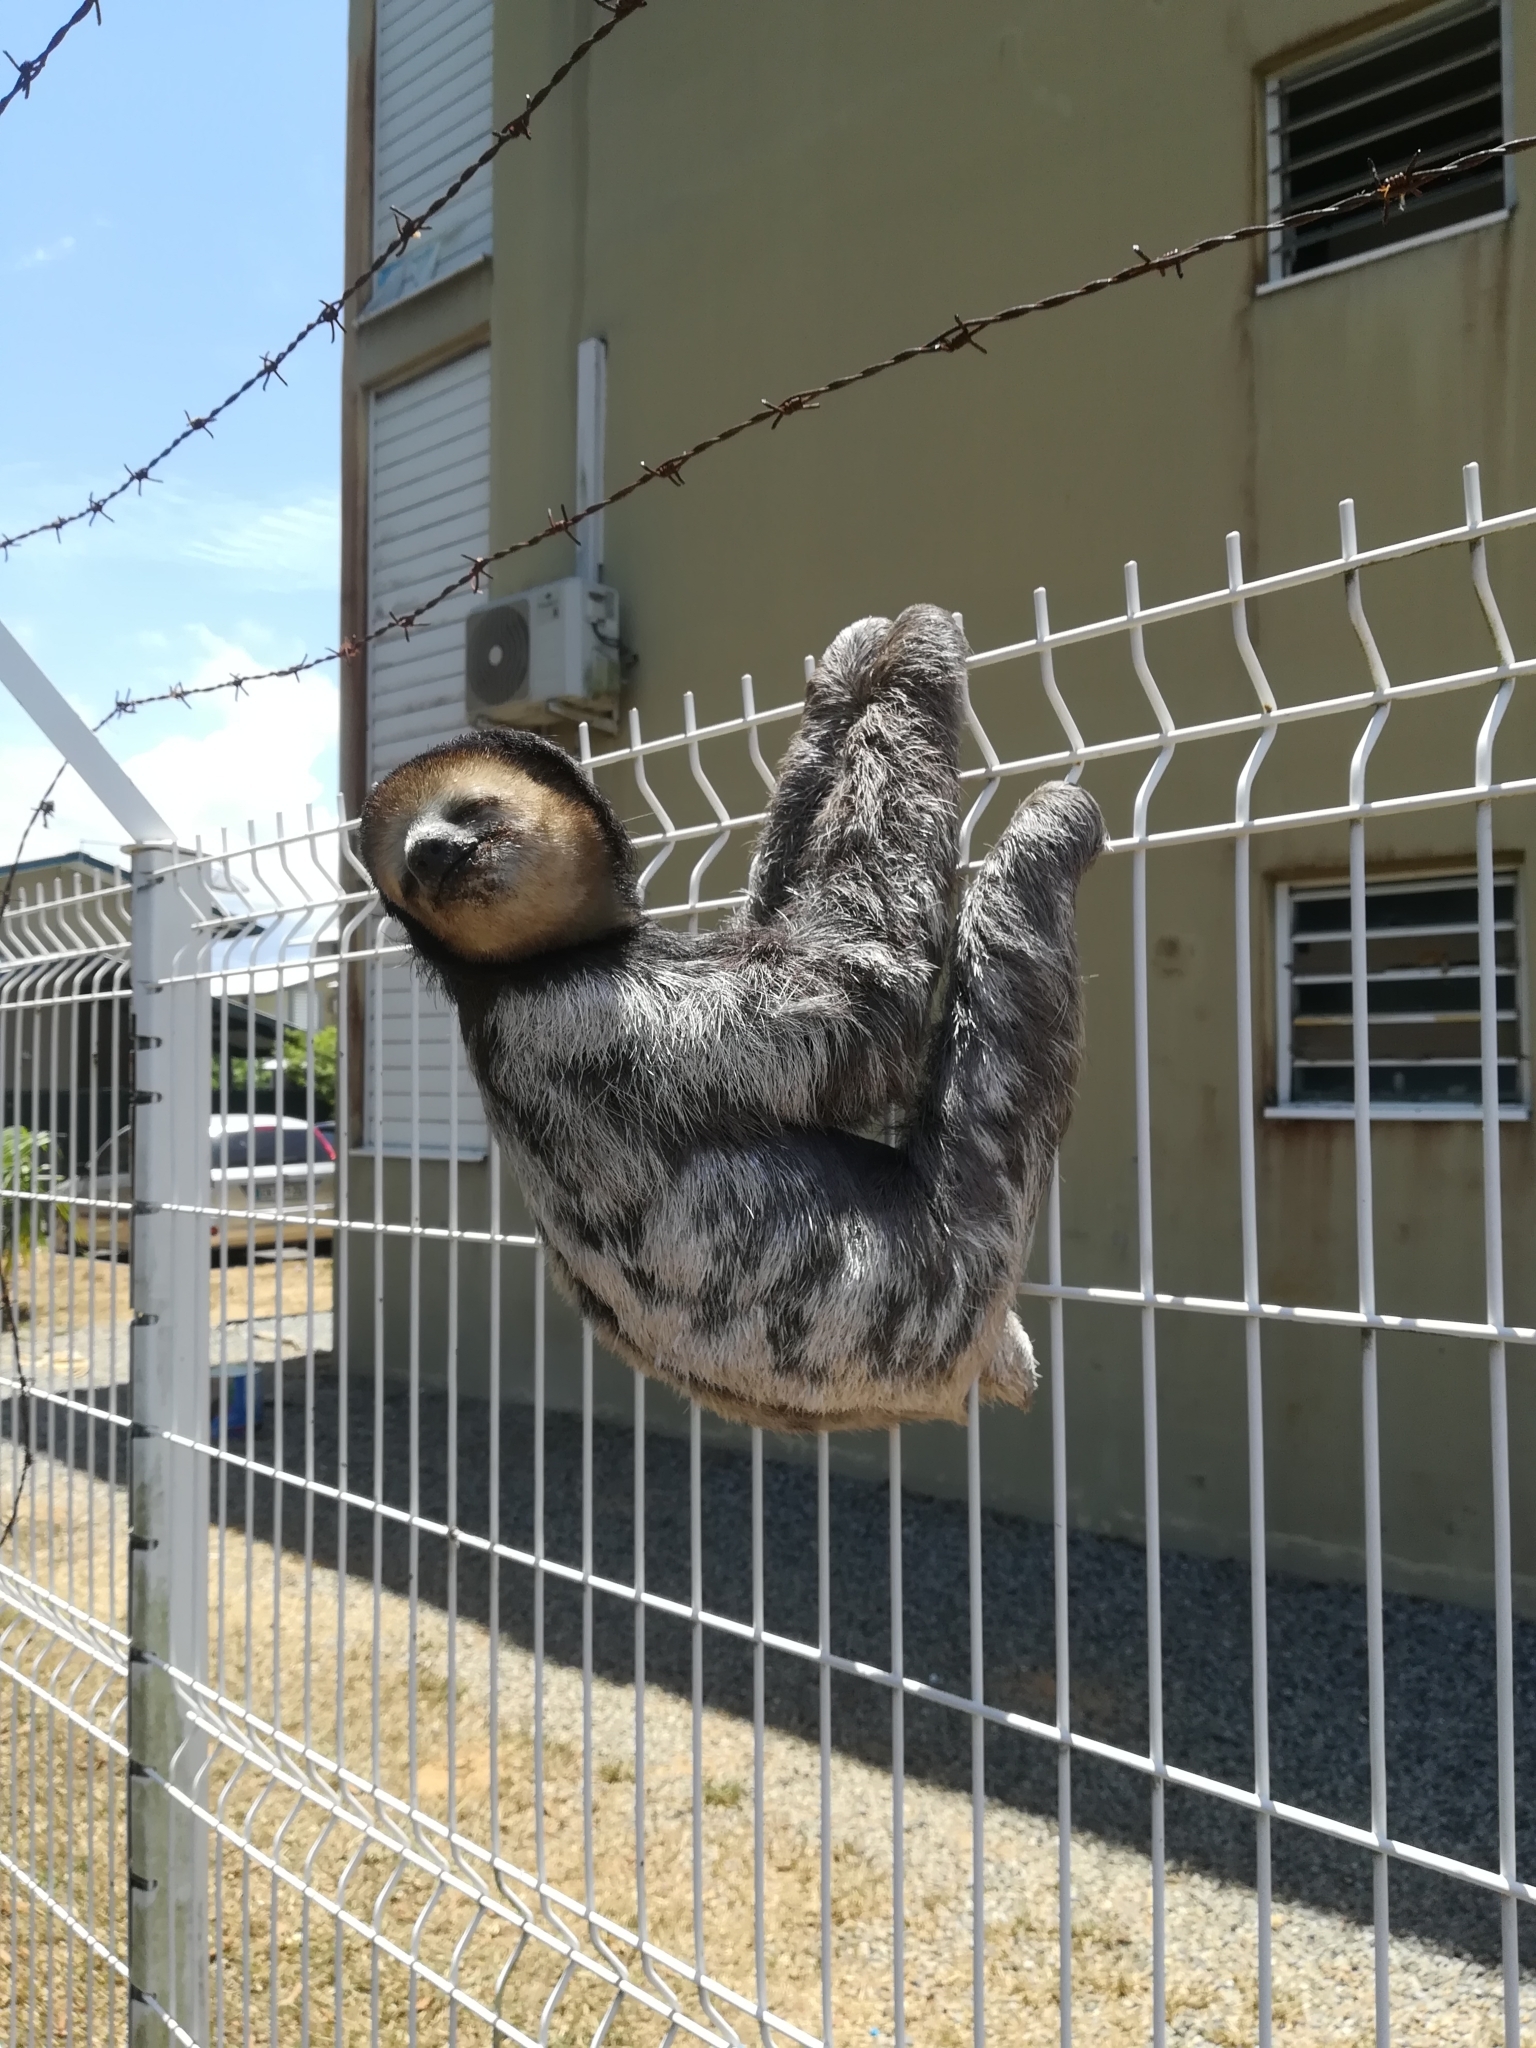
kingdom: Animalia
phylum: Chordata
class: Mammalia
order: Pilosa
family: Bradypodidae
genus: Bradypus
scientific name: Bradypus tridactylus
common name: Pale-throated three-toed sloth
